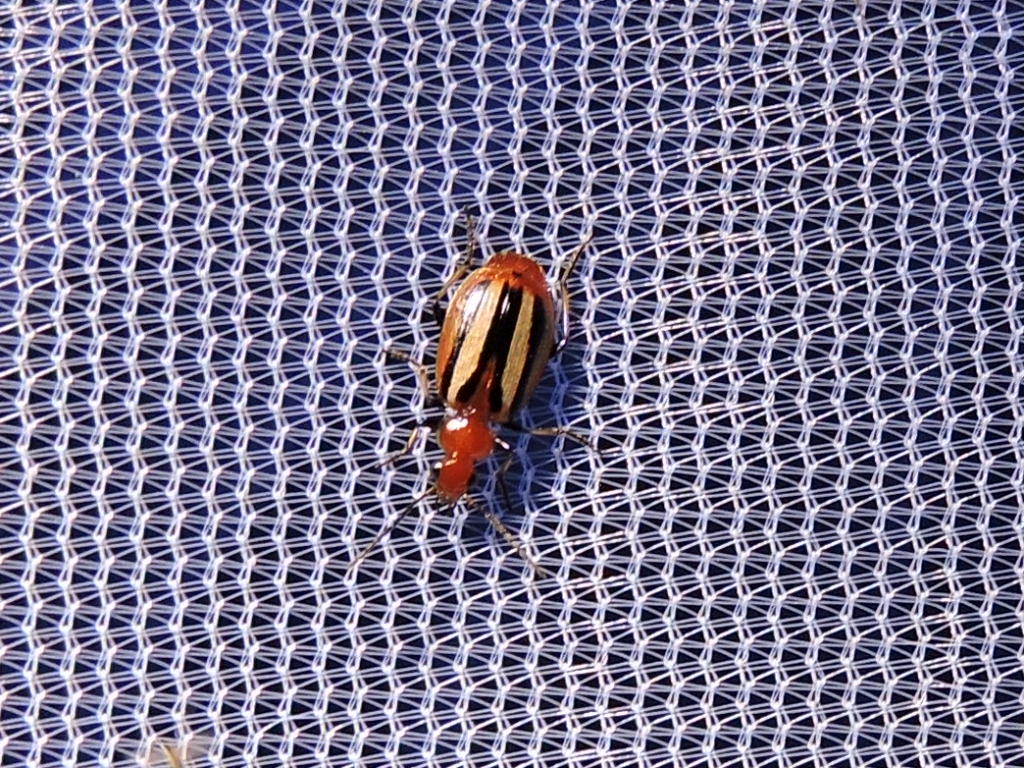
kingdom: Animalia
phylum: Arthropoda
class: Insecta
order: Coleoptera
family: Carabidae
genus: Lebia
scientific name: Lebia vittata
